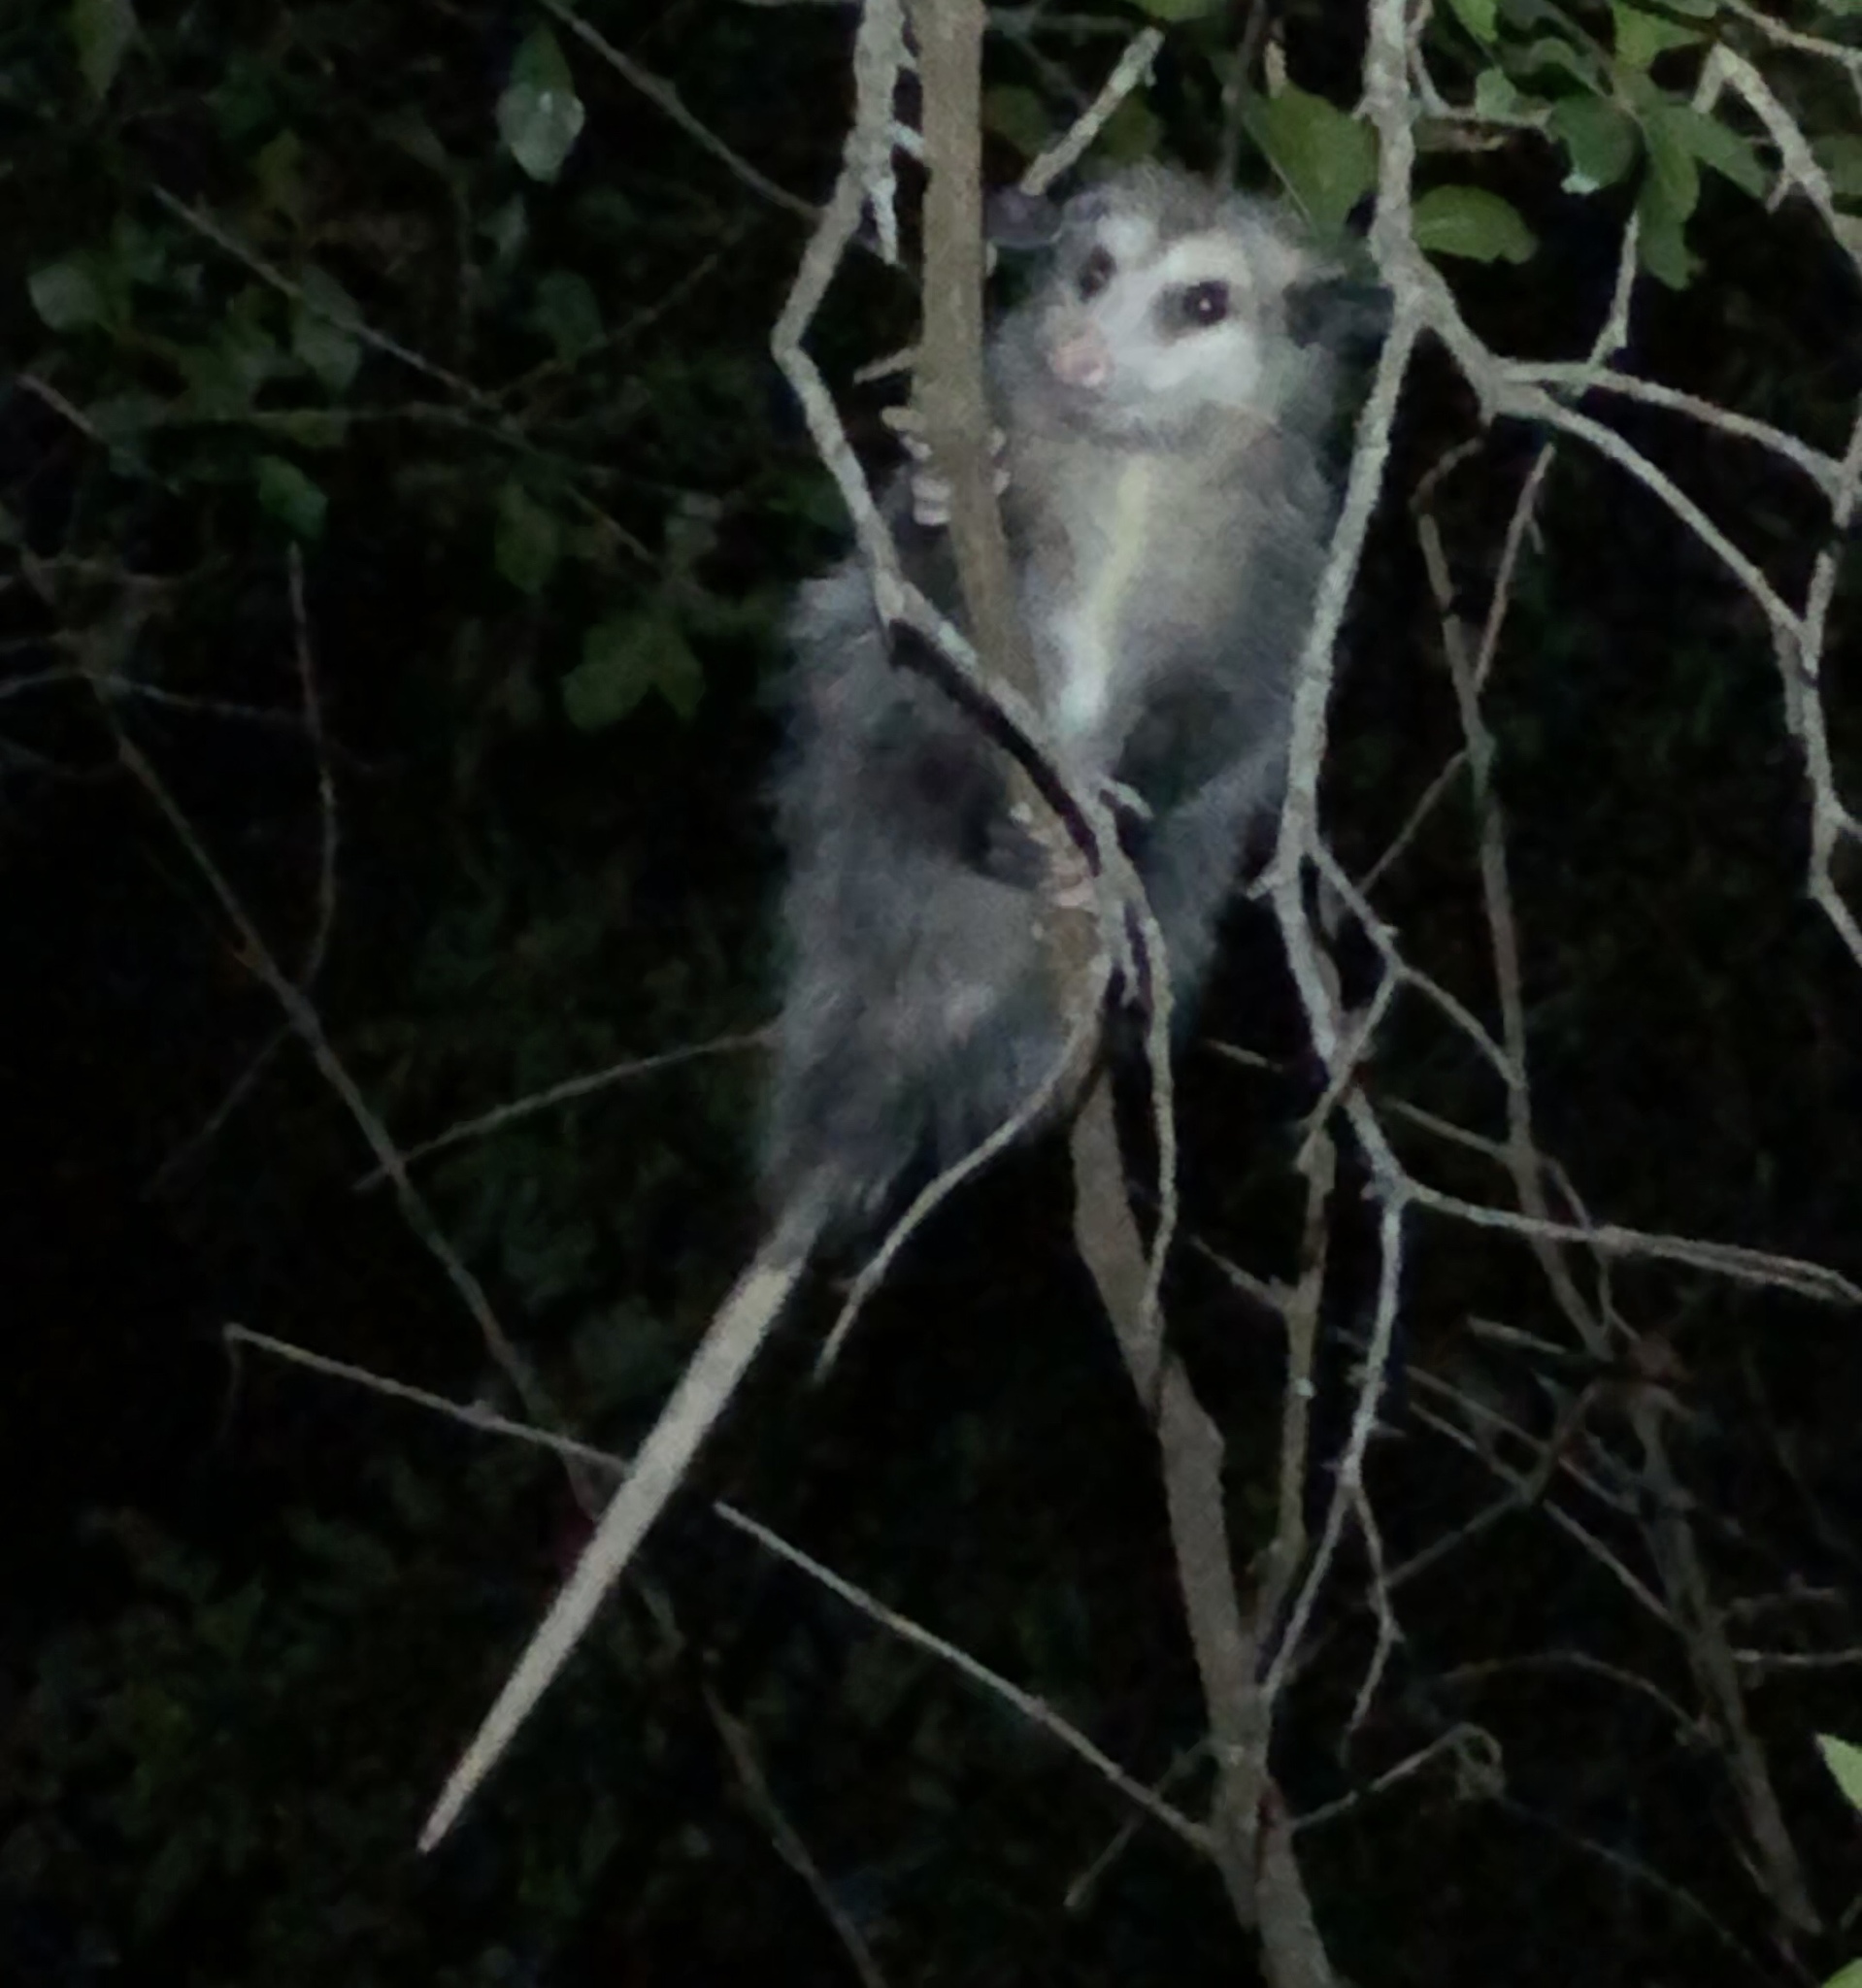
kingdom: Animalia
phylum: Chordata
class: Mammalia
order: Didelphimorphia
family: Didelphidae
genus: Didelphis
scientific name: Didelphis virginiana
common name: Virginia opossum
